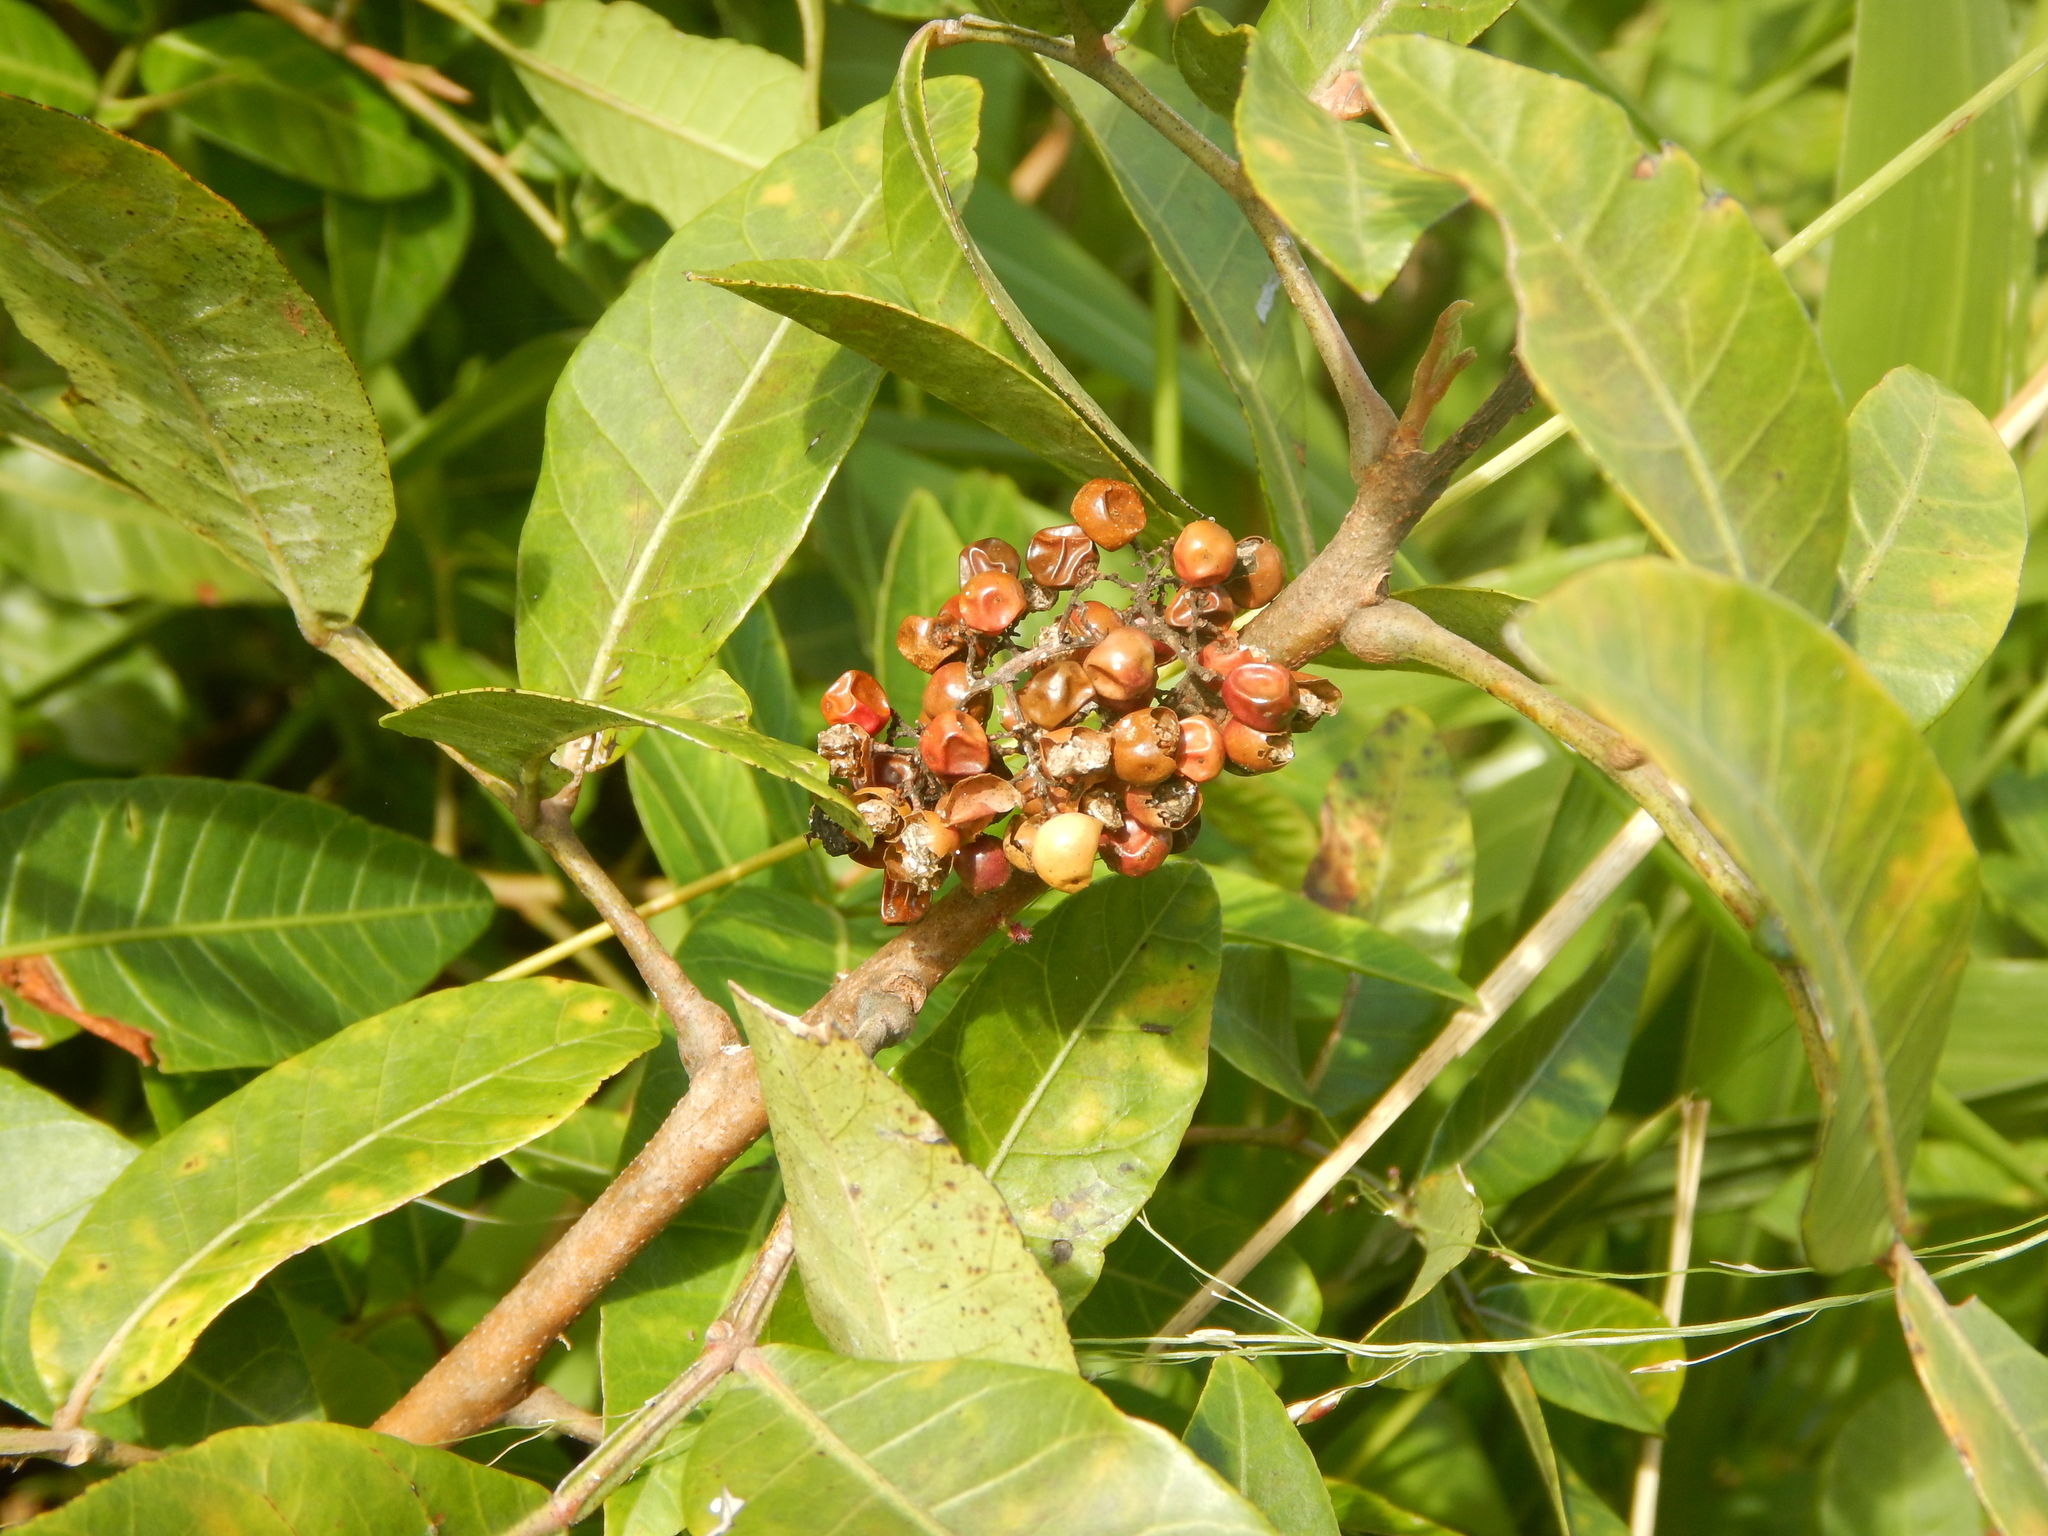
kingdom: Plantae
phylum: Tracheophyta
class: Magnoliopsida
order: Sapindales
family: Anacardiaceae
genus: Schinus
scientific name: Schinus terebinthifolia
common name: Brazilian peppertree
